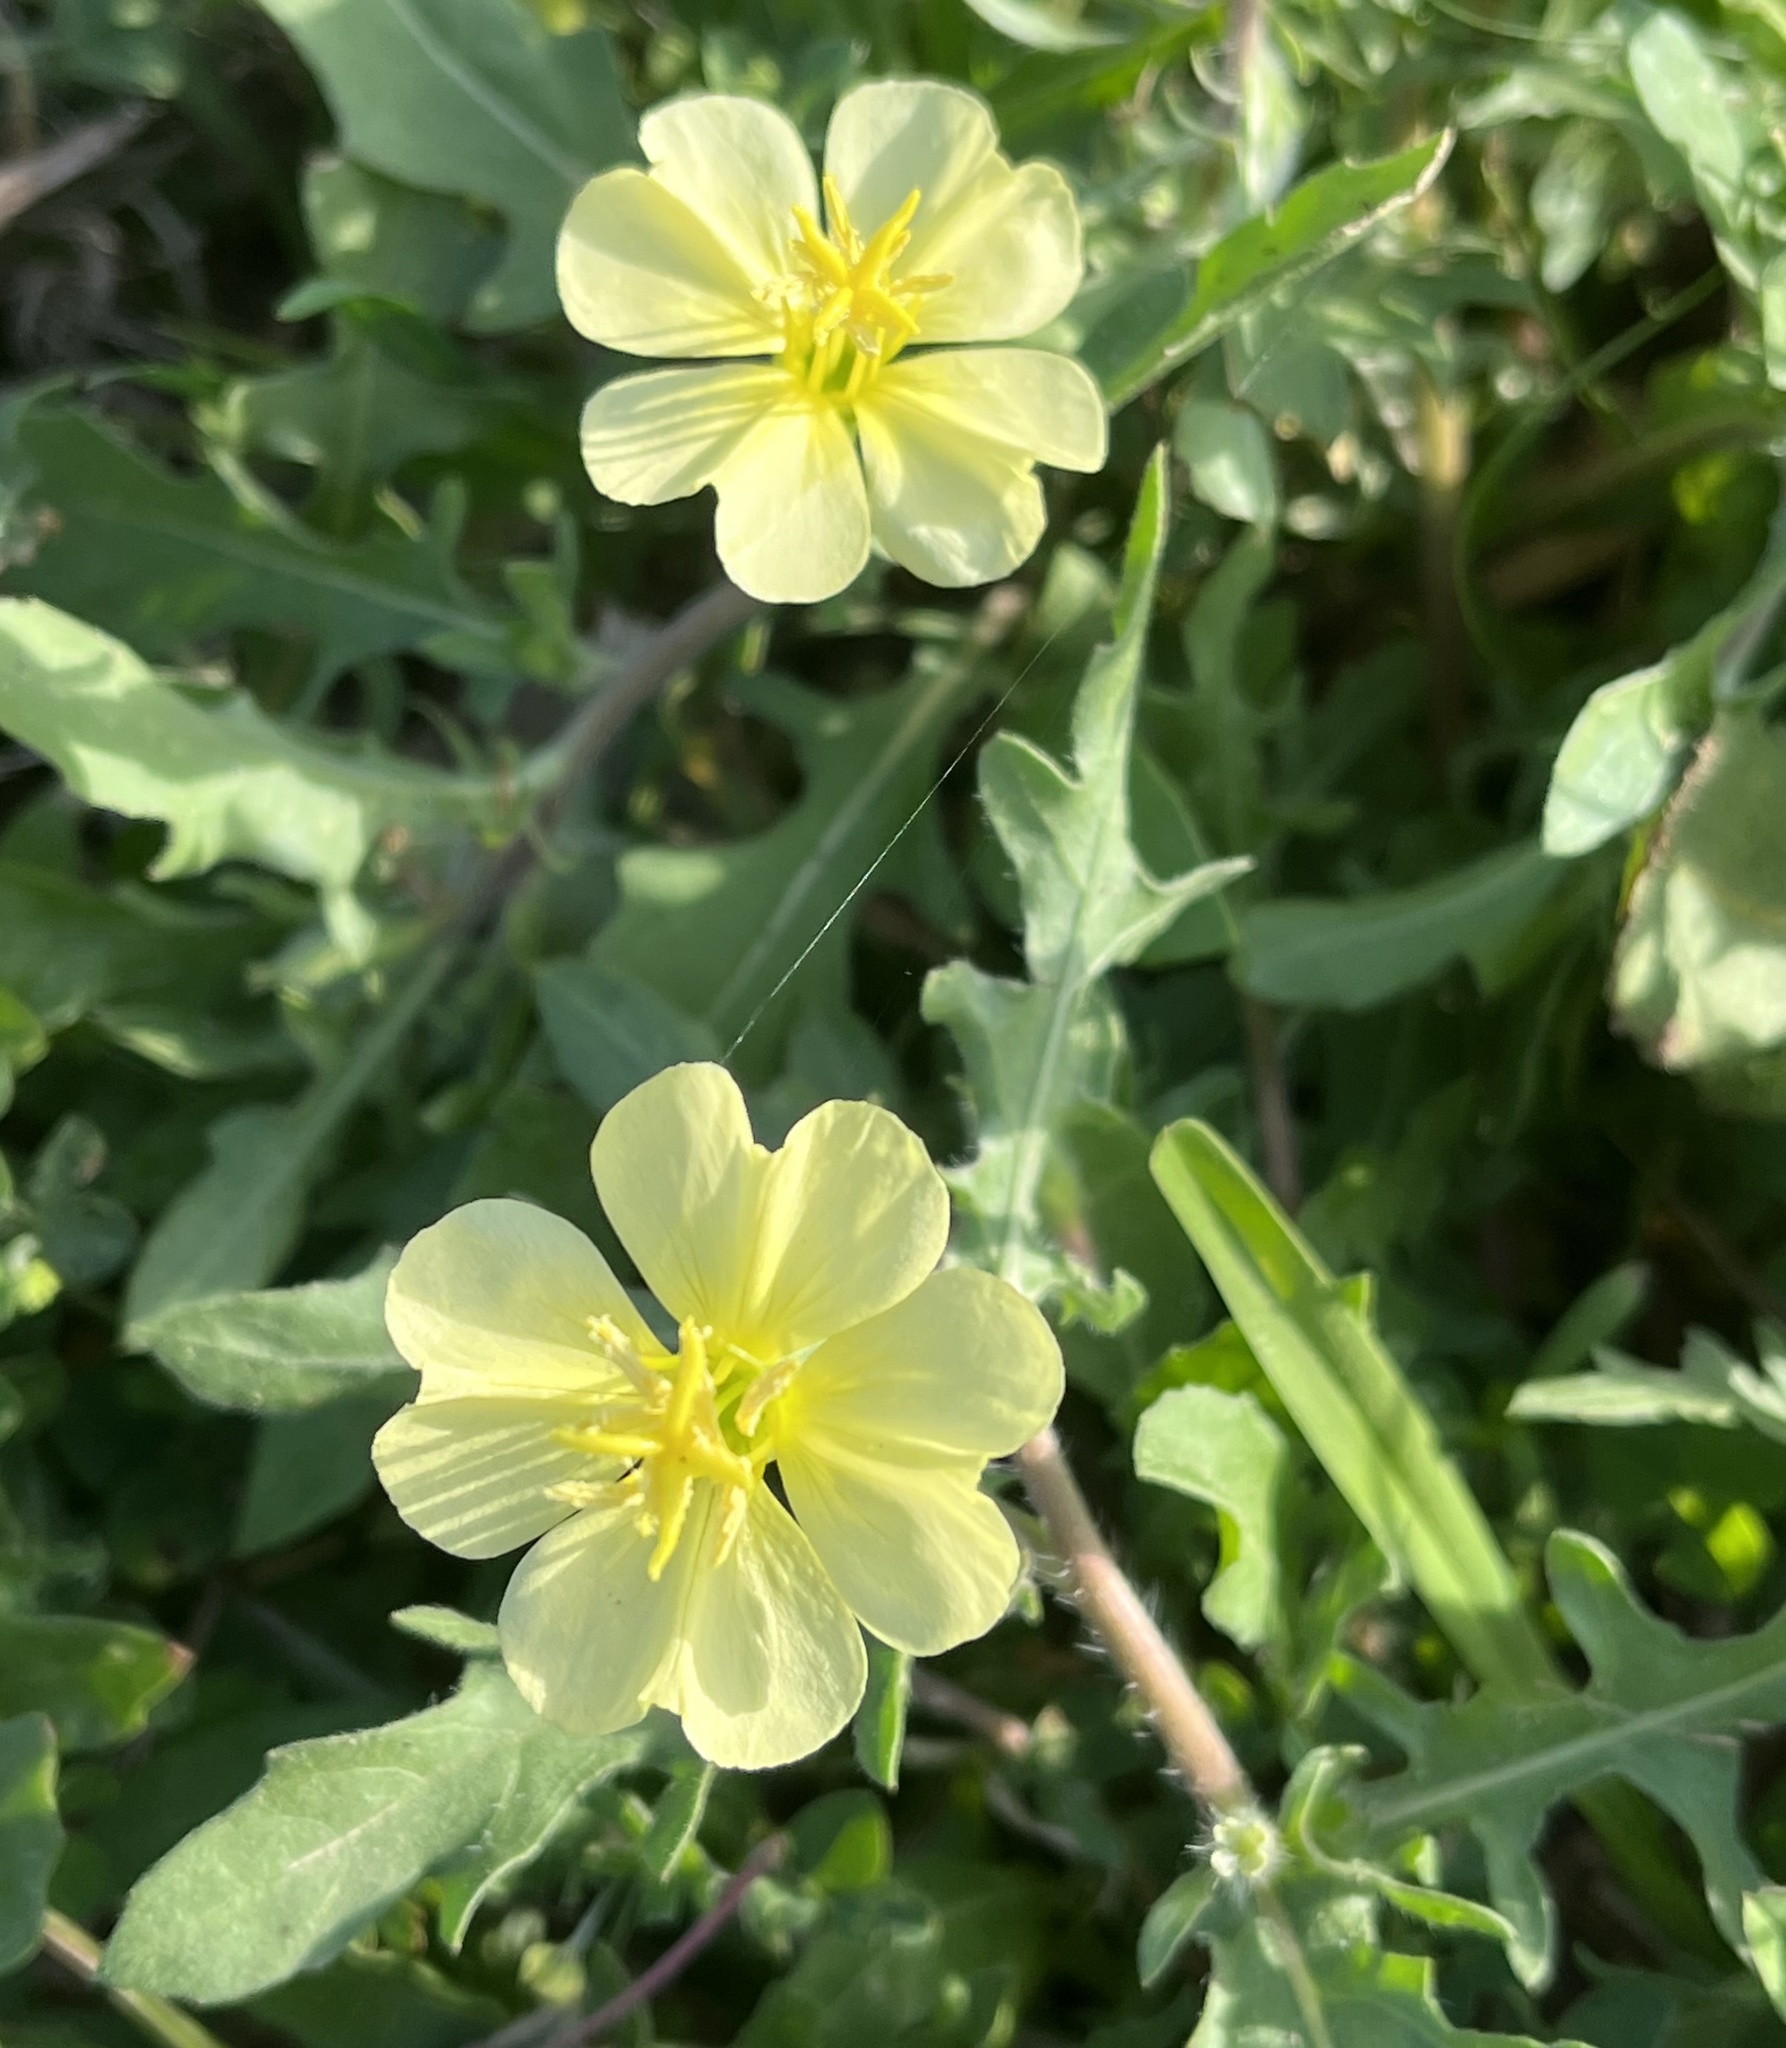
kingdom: Plantae
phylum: Tracheophyta
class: Magnoliopsida
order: Myrtales
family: Onagraceae
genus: Oenothera
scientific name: Oenothera laciniata
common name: Cut-leaved evening-primrose
